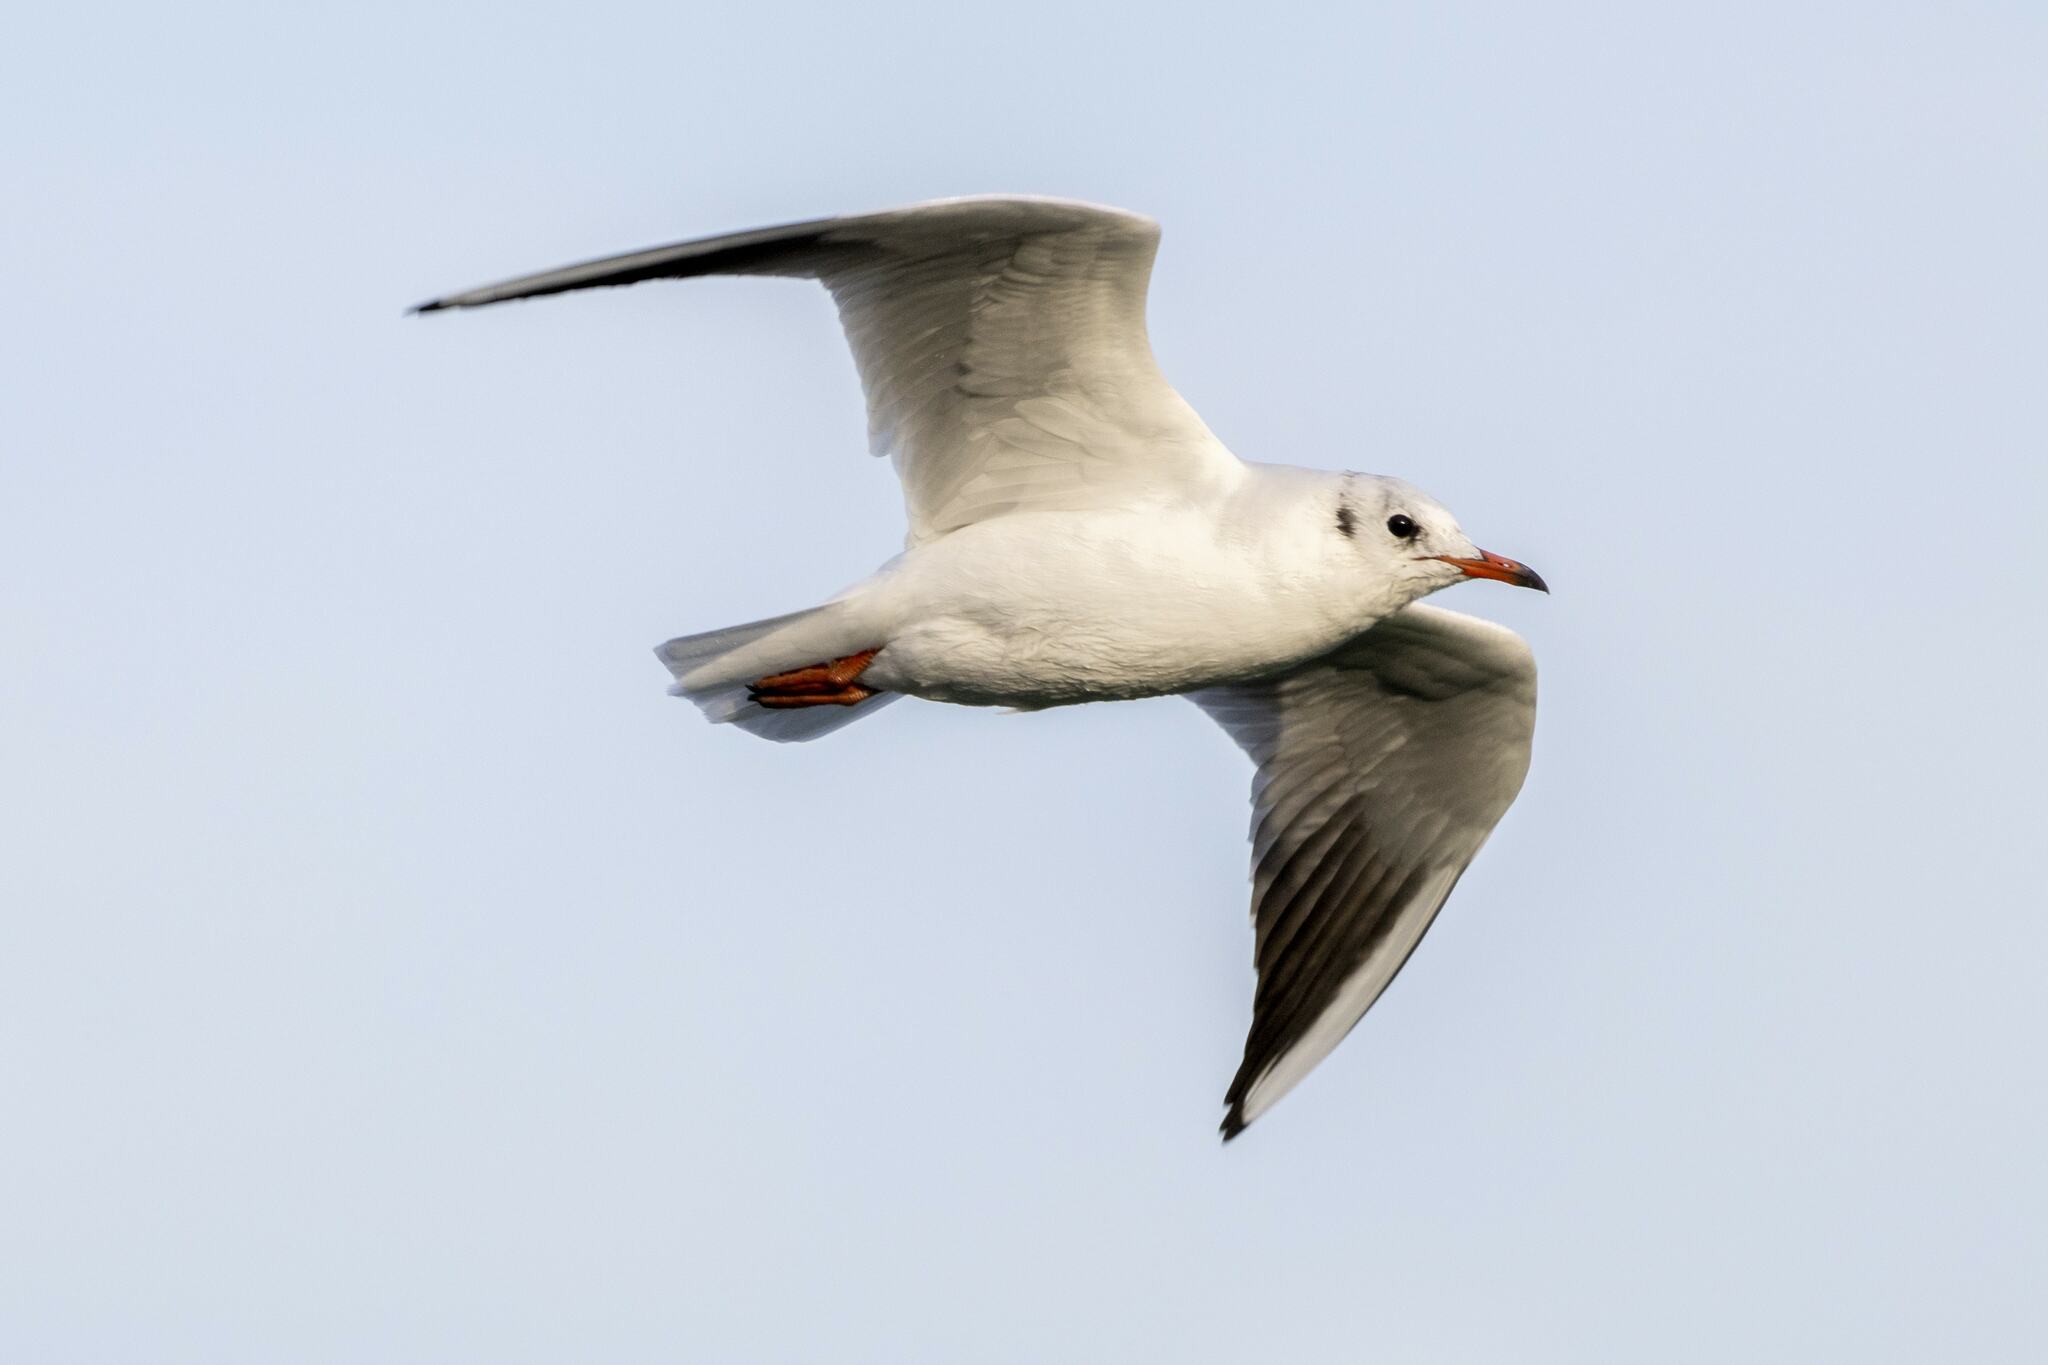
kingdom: Animalia
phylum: Chordata
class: Aves
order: Charadriiformes
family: Laridae
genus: Chroicocephalus
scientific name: Chroicocephalus ridibundus
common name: Black-headed gull
